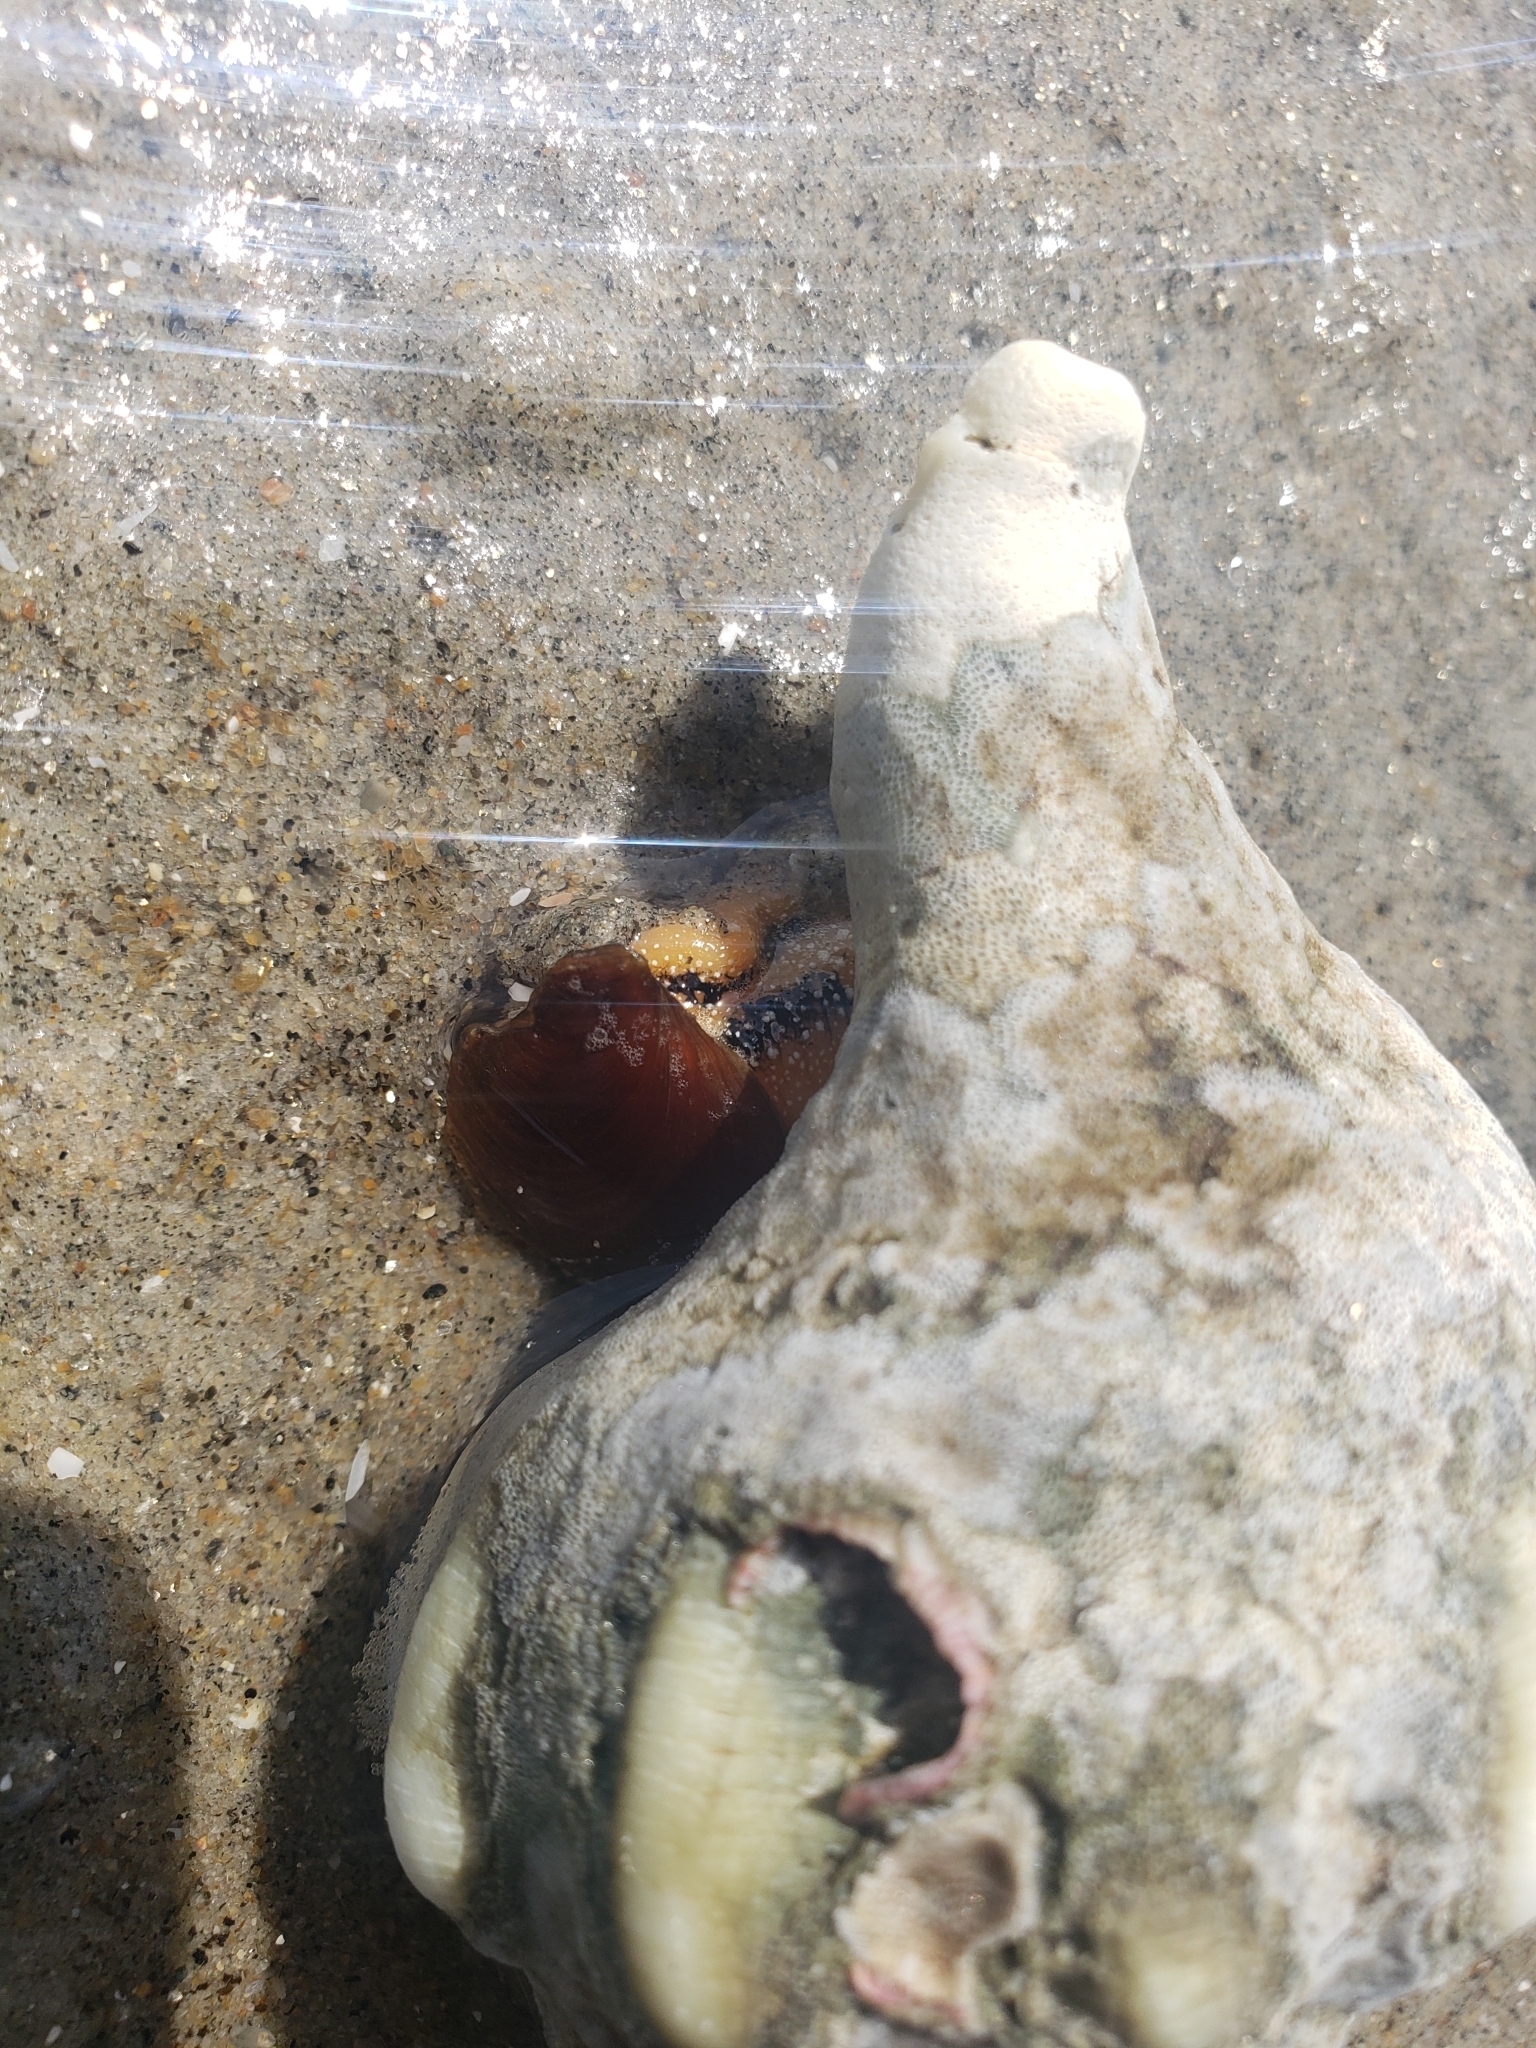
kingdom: Animalia
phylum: Mollusca
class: Gastropoda
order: Neogastropoda
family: Austrosiphonidae
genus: Kelletia
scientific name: Kelletia kelletii
